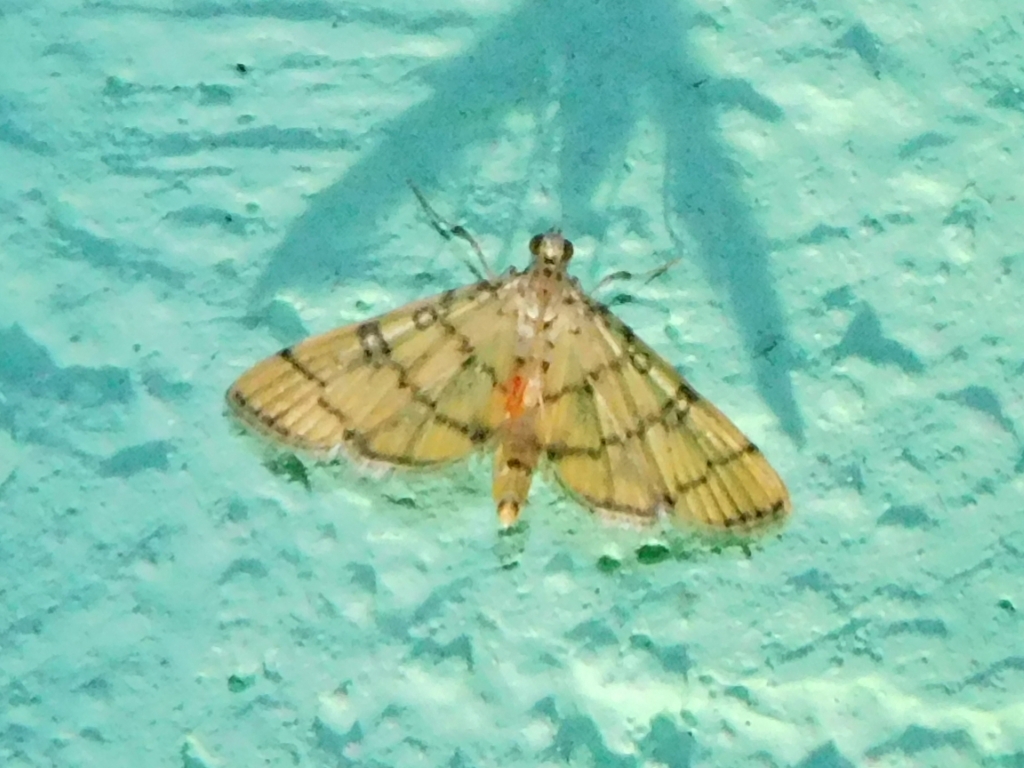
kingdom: Animalia
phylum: Arthropoda
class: Insecta
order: Lepidoptera
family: Crambidae
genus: Lamprosema
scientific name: Lamprosema tampiusalis
